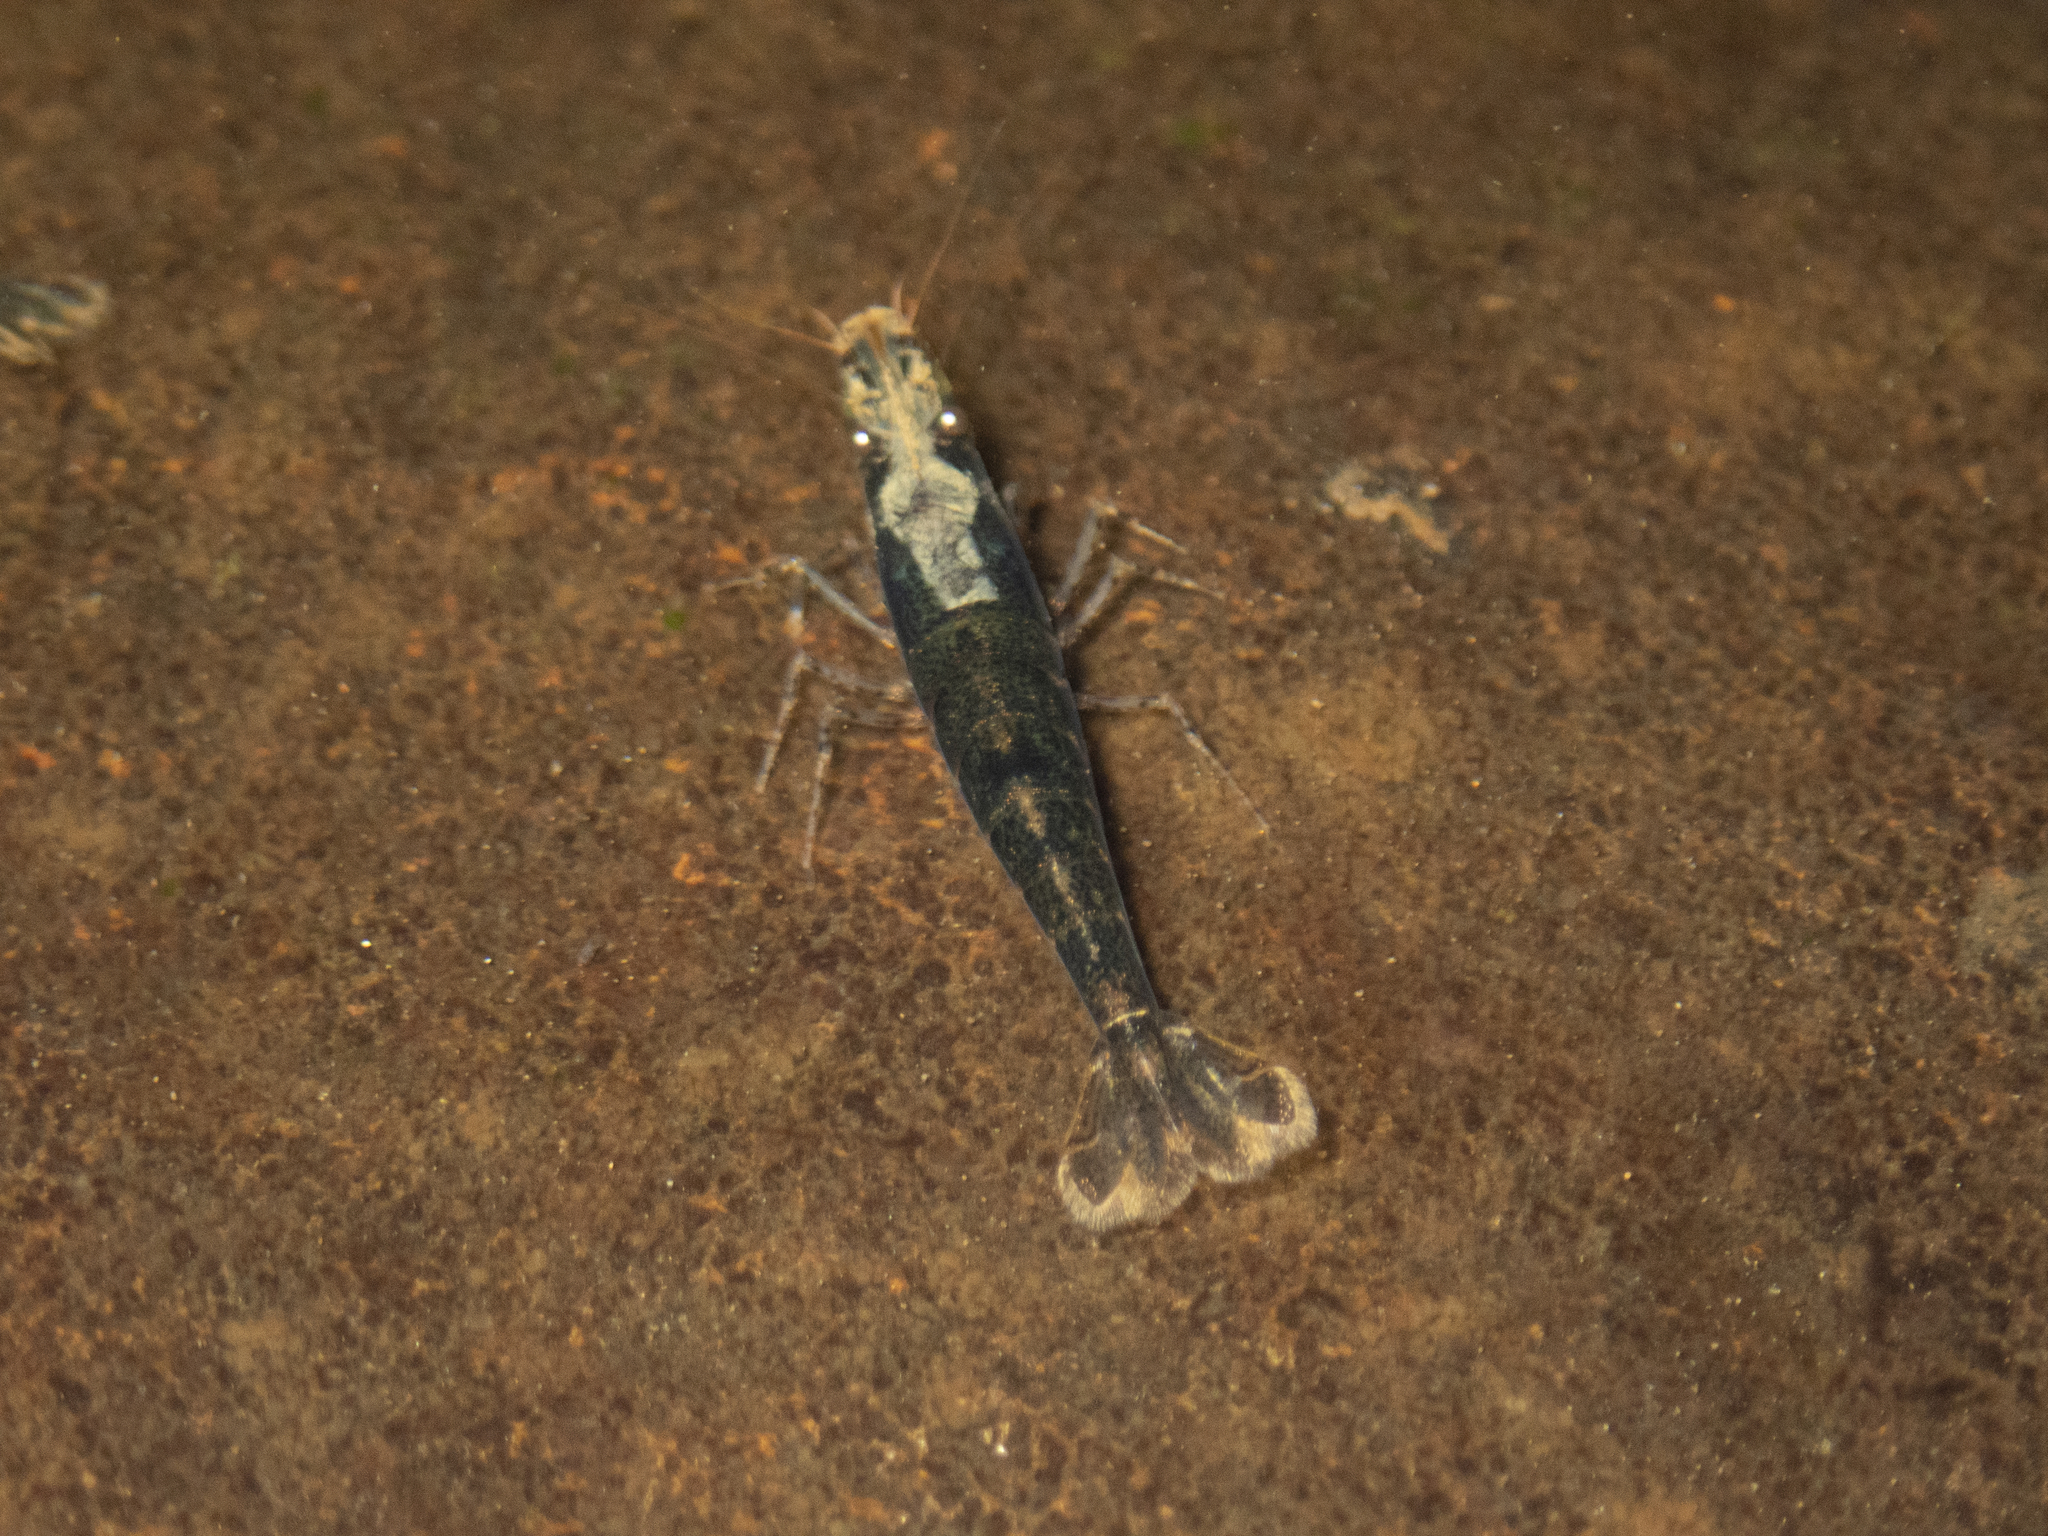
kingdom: Animalia
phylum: Arthropoda
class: Malacostraca
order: Decapoda
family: Atyidae
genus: Caridina
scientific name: Caridina cantonensis
